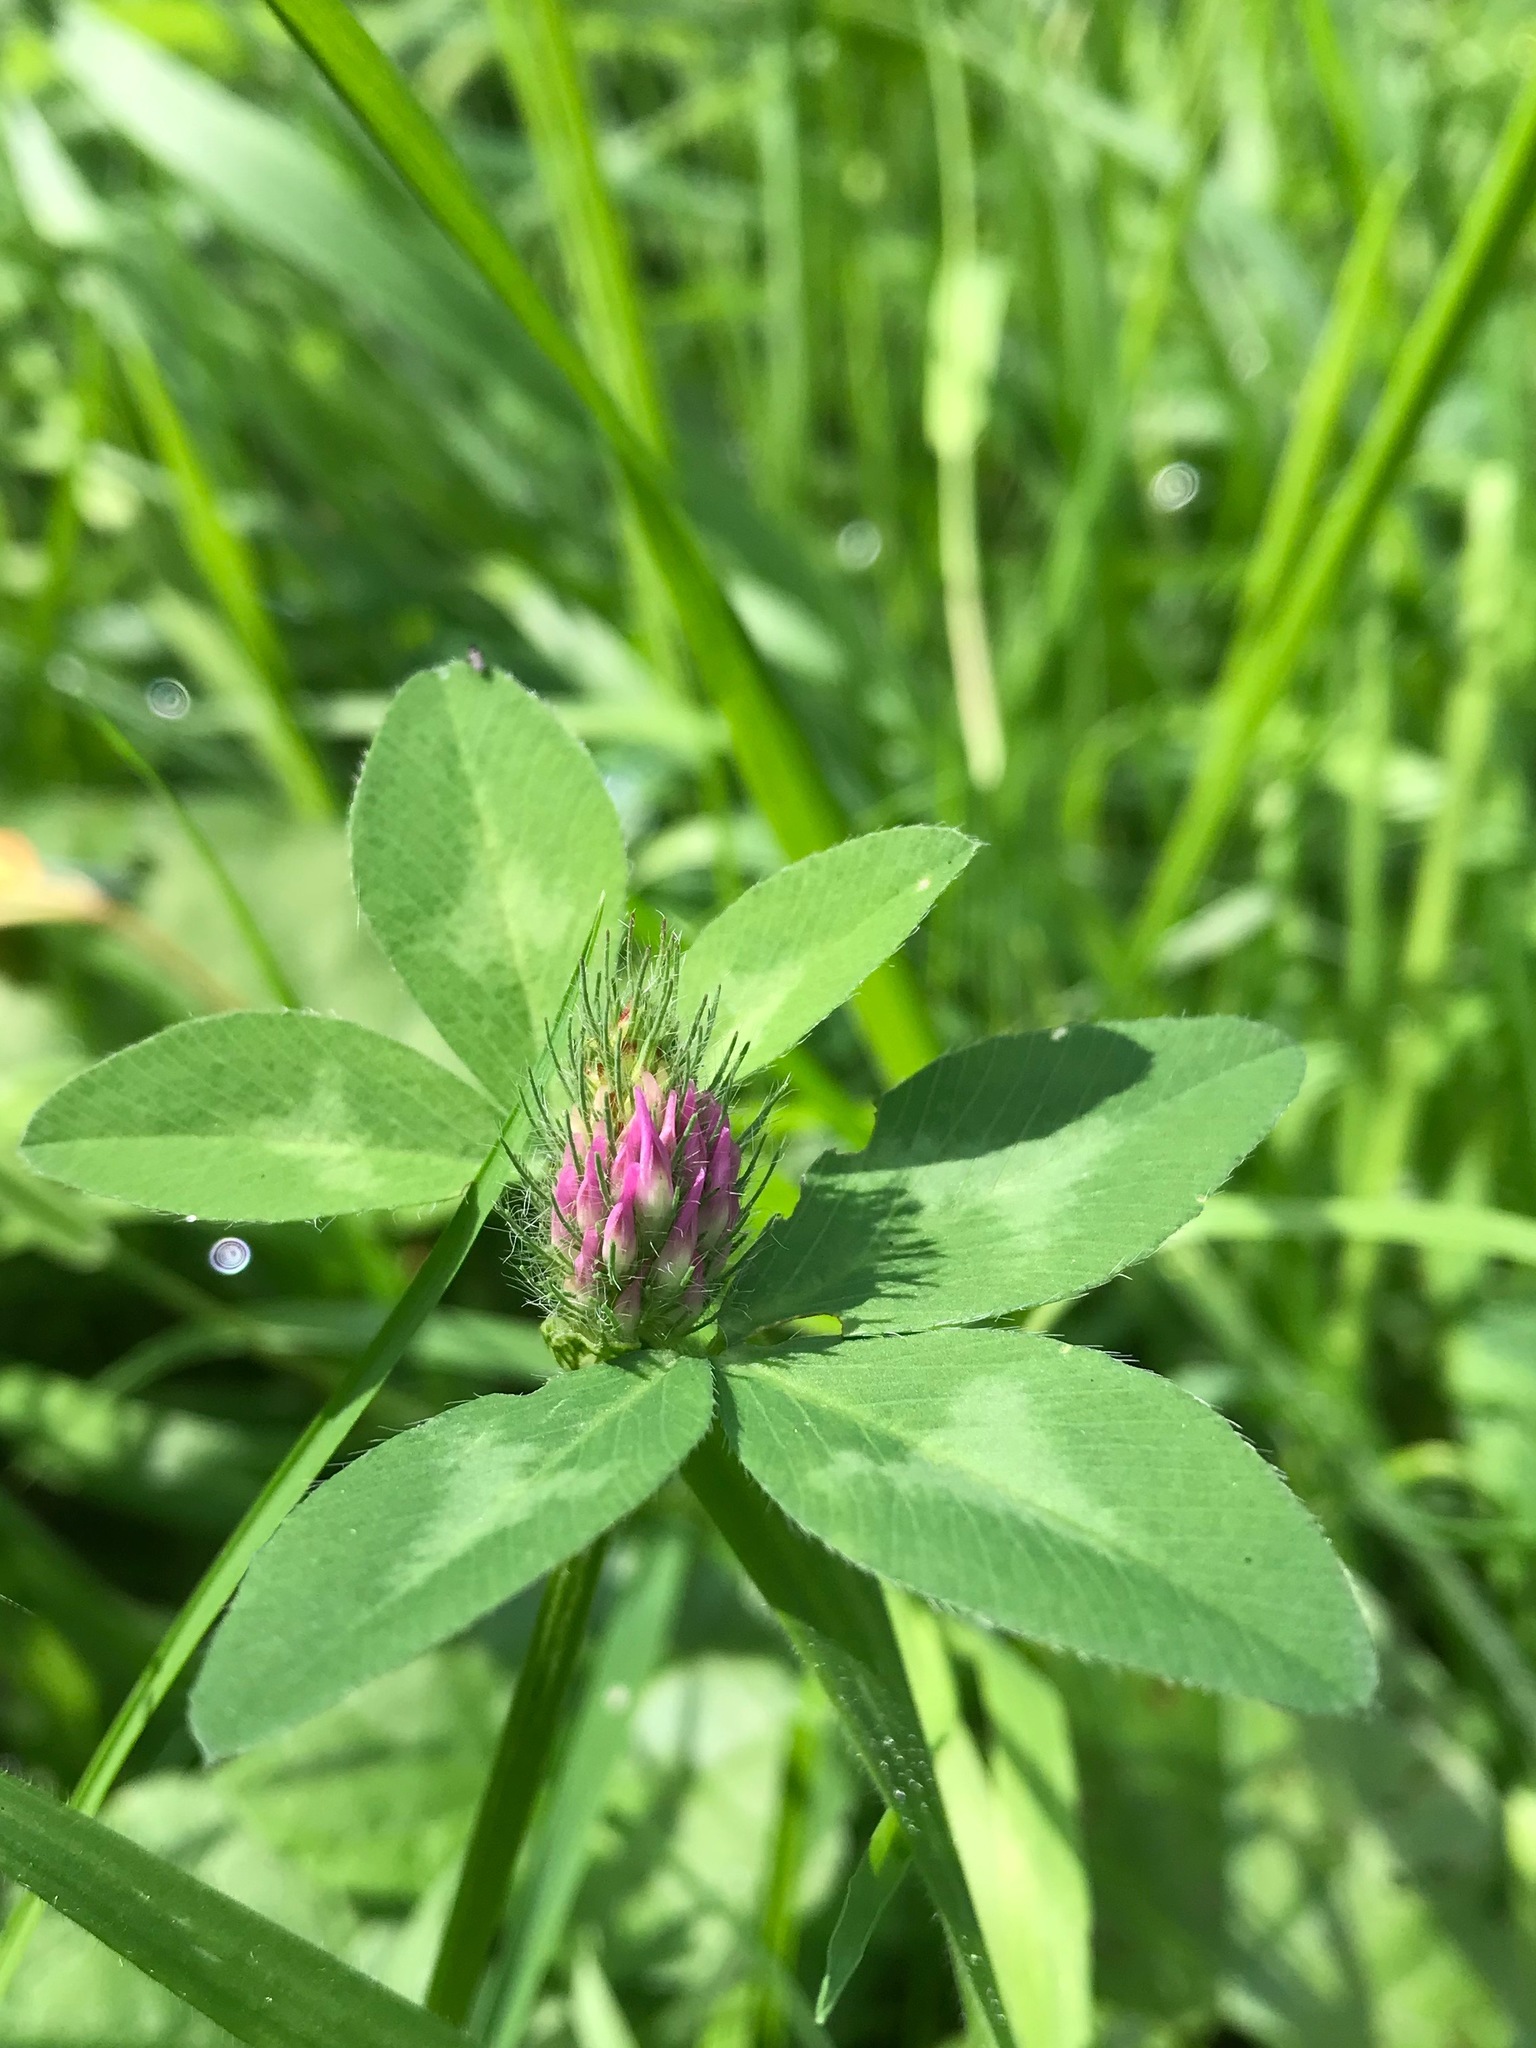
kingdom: Plantae
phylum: Tracheophyta
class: Magnoliopsida
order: Fabales
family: Fabaceae
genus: Trifolium
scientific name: Trifolium pratense
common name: Red clover
